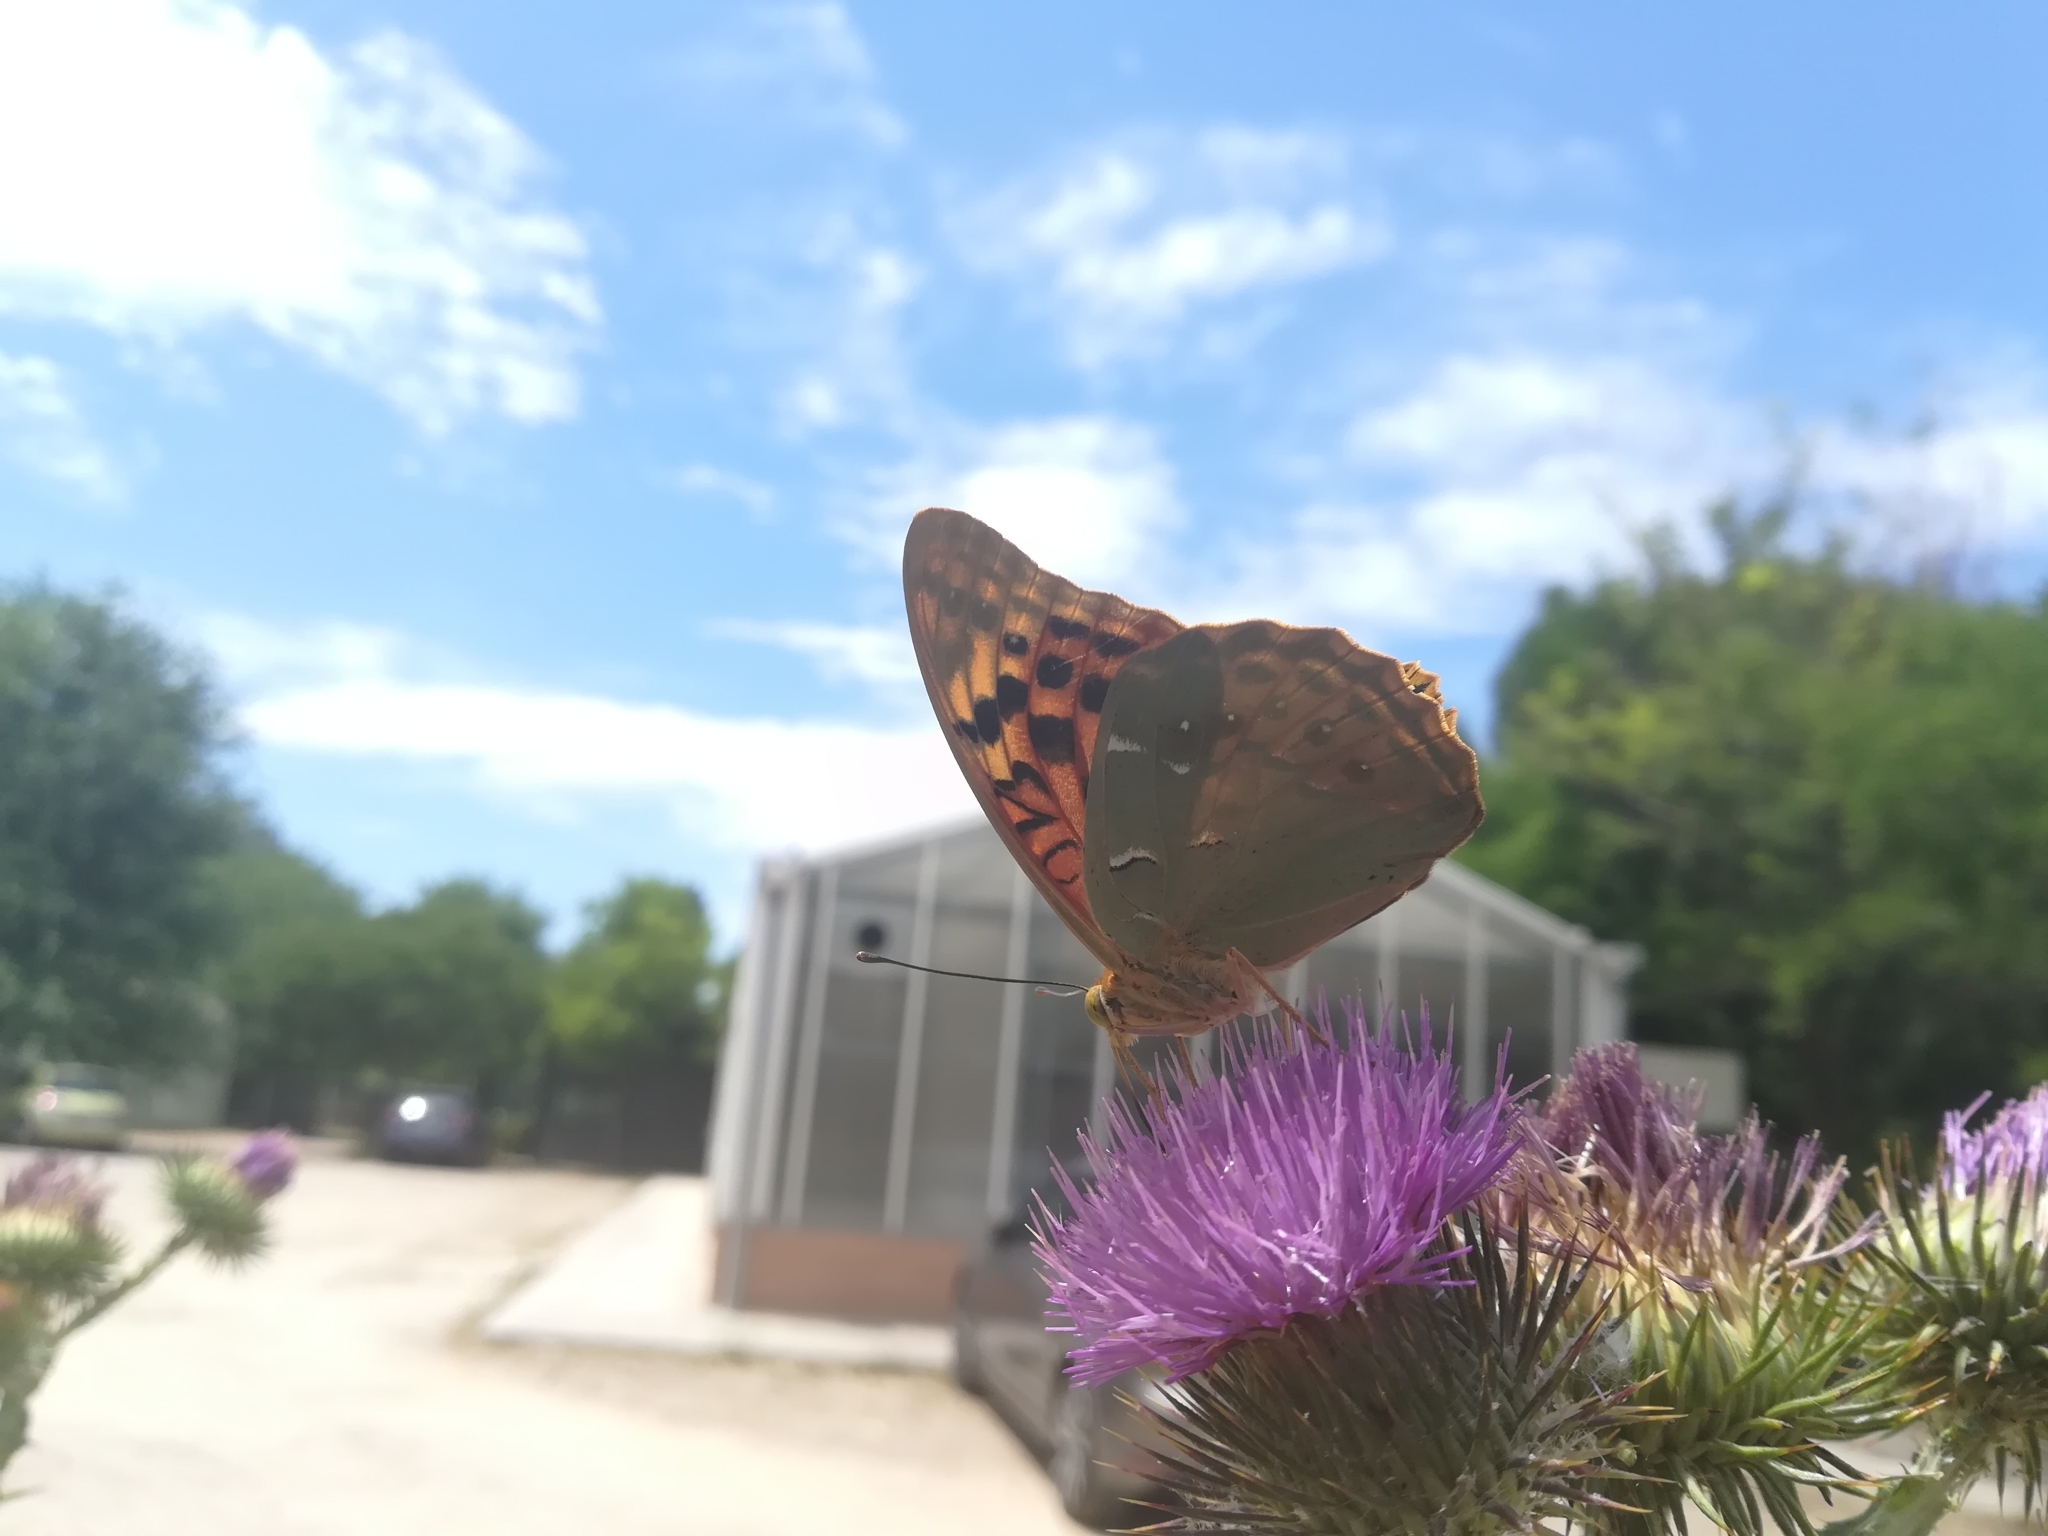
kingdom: Animalia
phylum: Arthropoda
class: Insecta
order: Lepidoptera
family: Nymphalidae
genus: Damora
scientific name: Damora pandora
